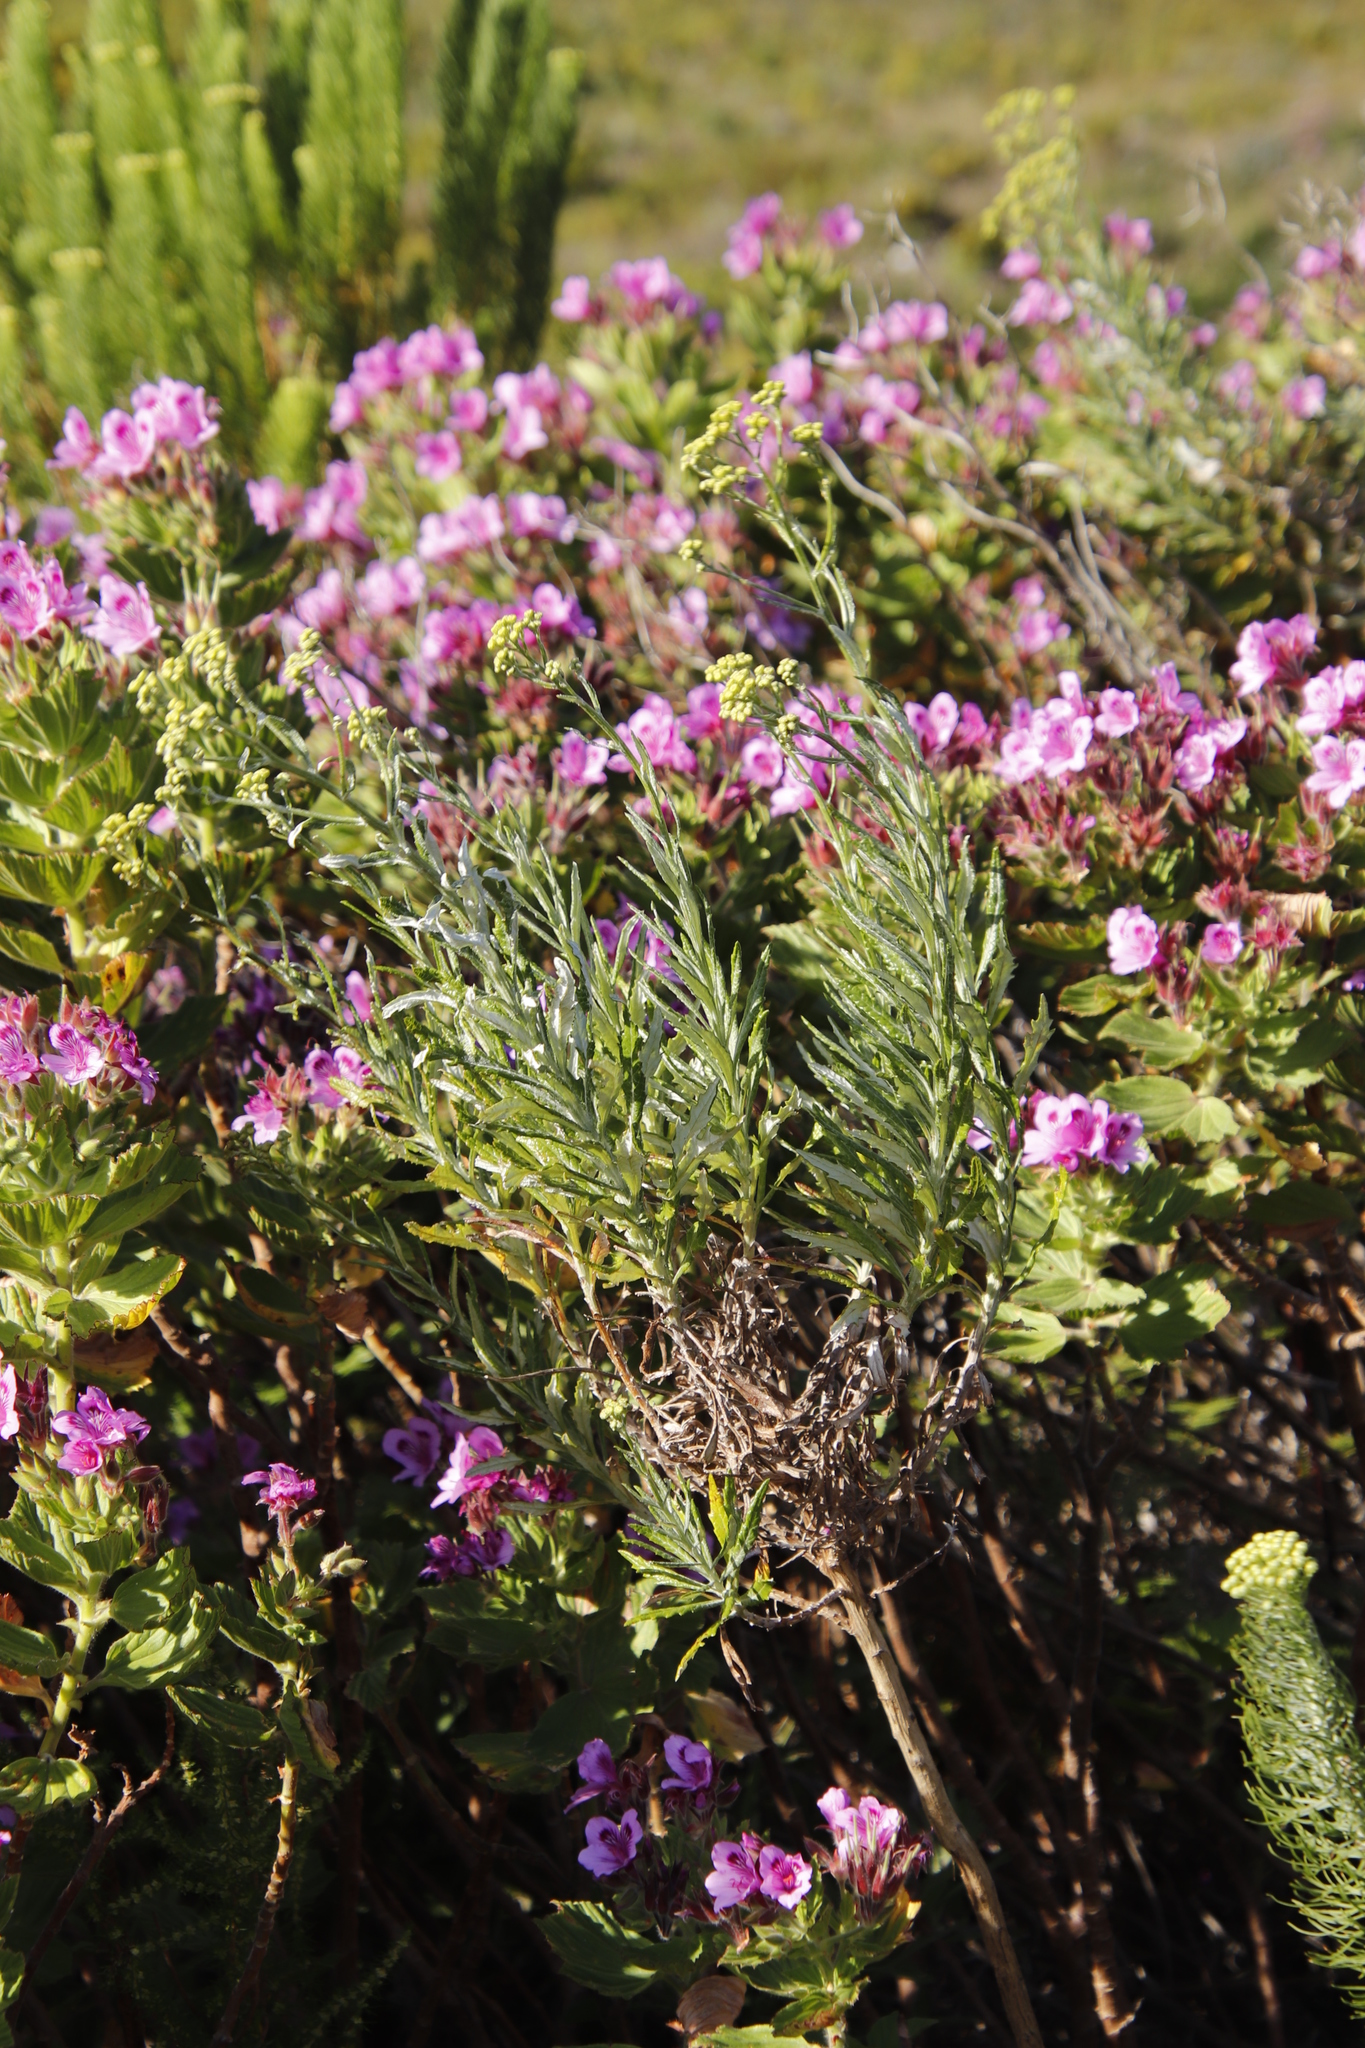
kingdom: Plantae
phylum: Tracheophyta
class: Magnoliopsida
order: Asterales
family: Asteraceae
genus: Senecio
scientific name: Senecio pterophorus
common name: Shoddy ragwort
